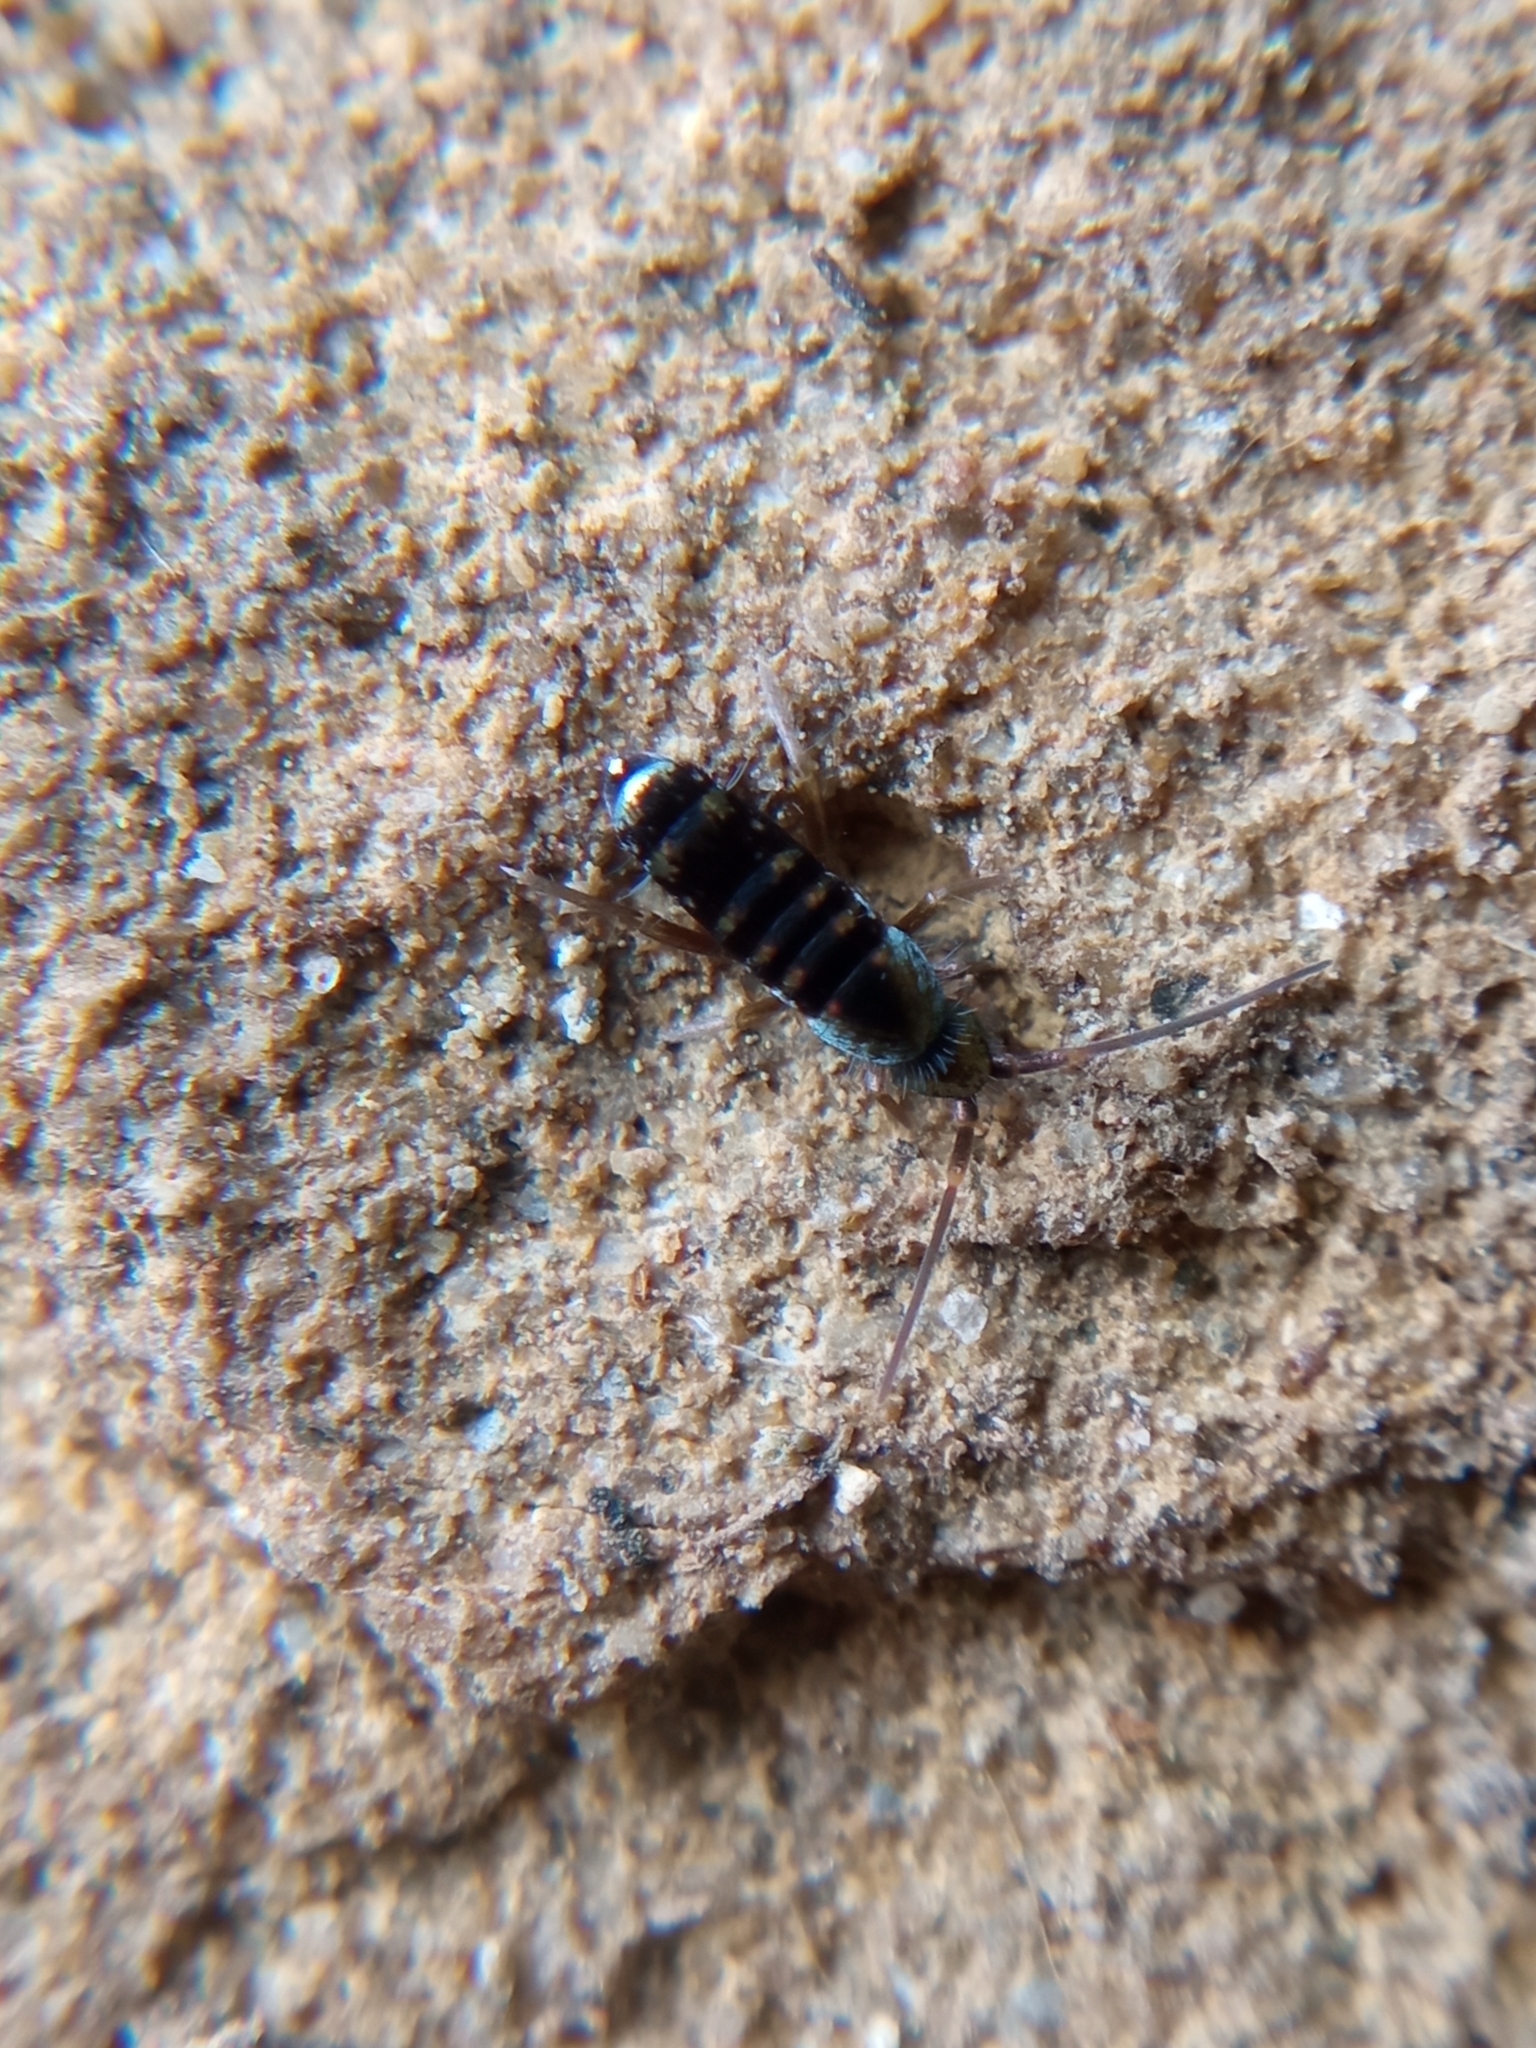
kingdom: Animalia
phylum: Arthropoda
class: Collembola
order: Entomobryomorpha
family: Tomoceridae
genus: Tomocerus
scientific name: Tomocerus vulgaris
